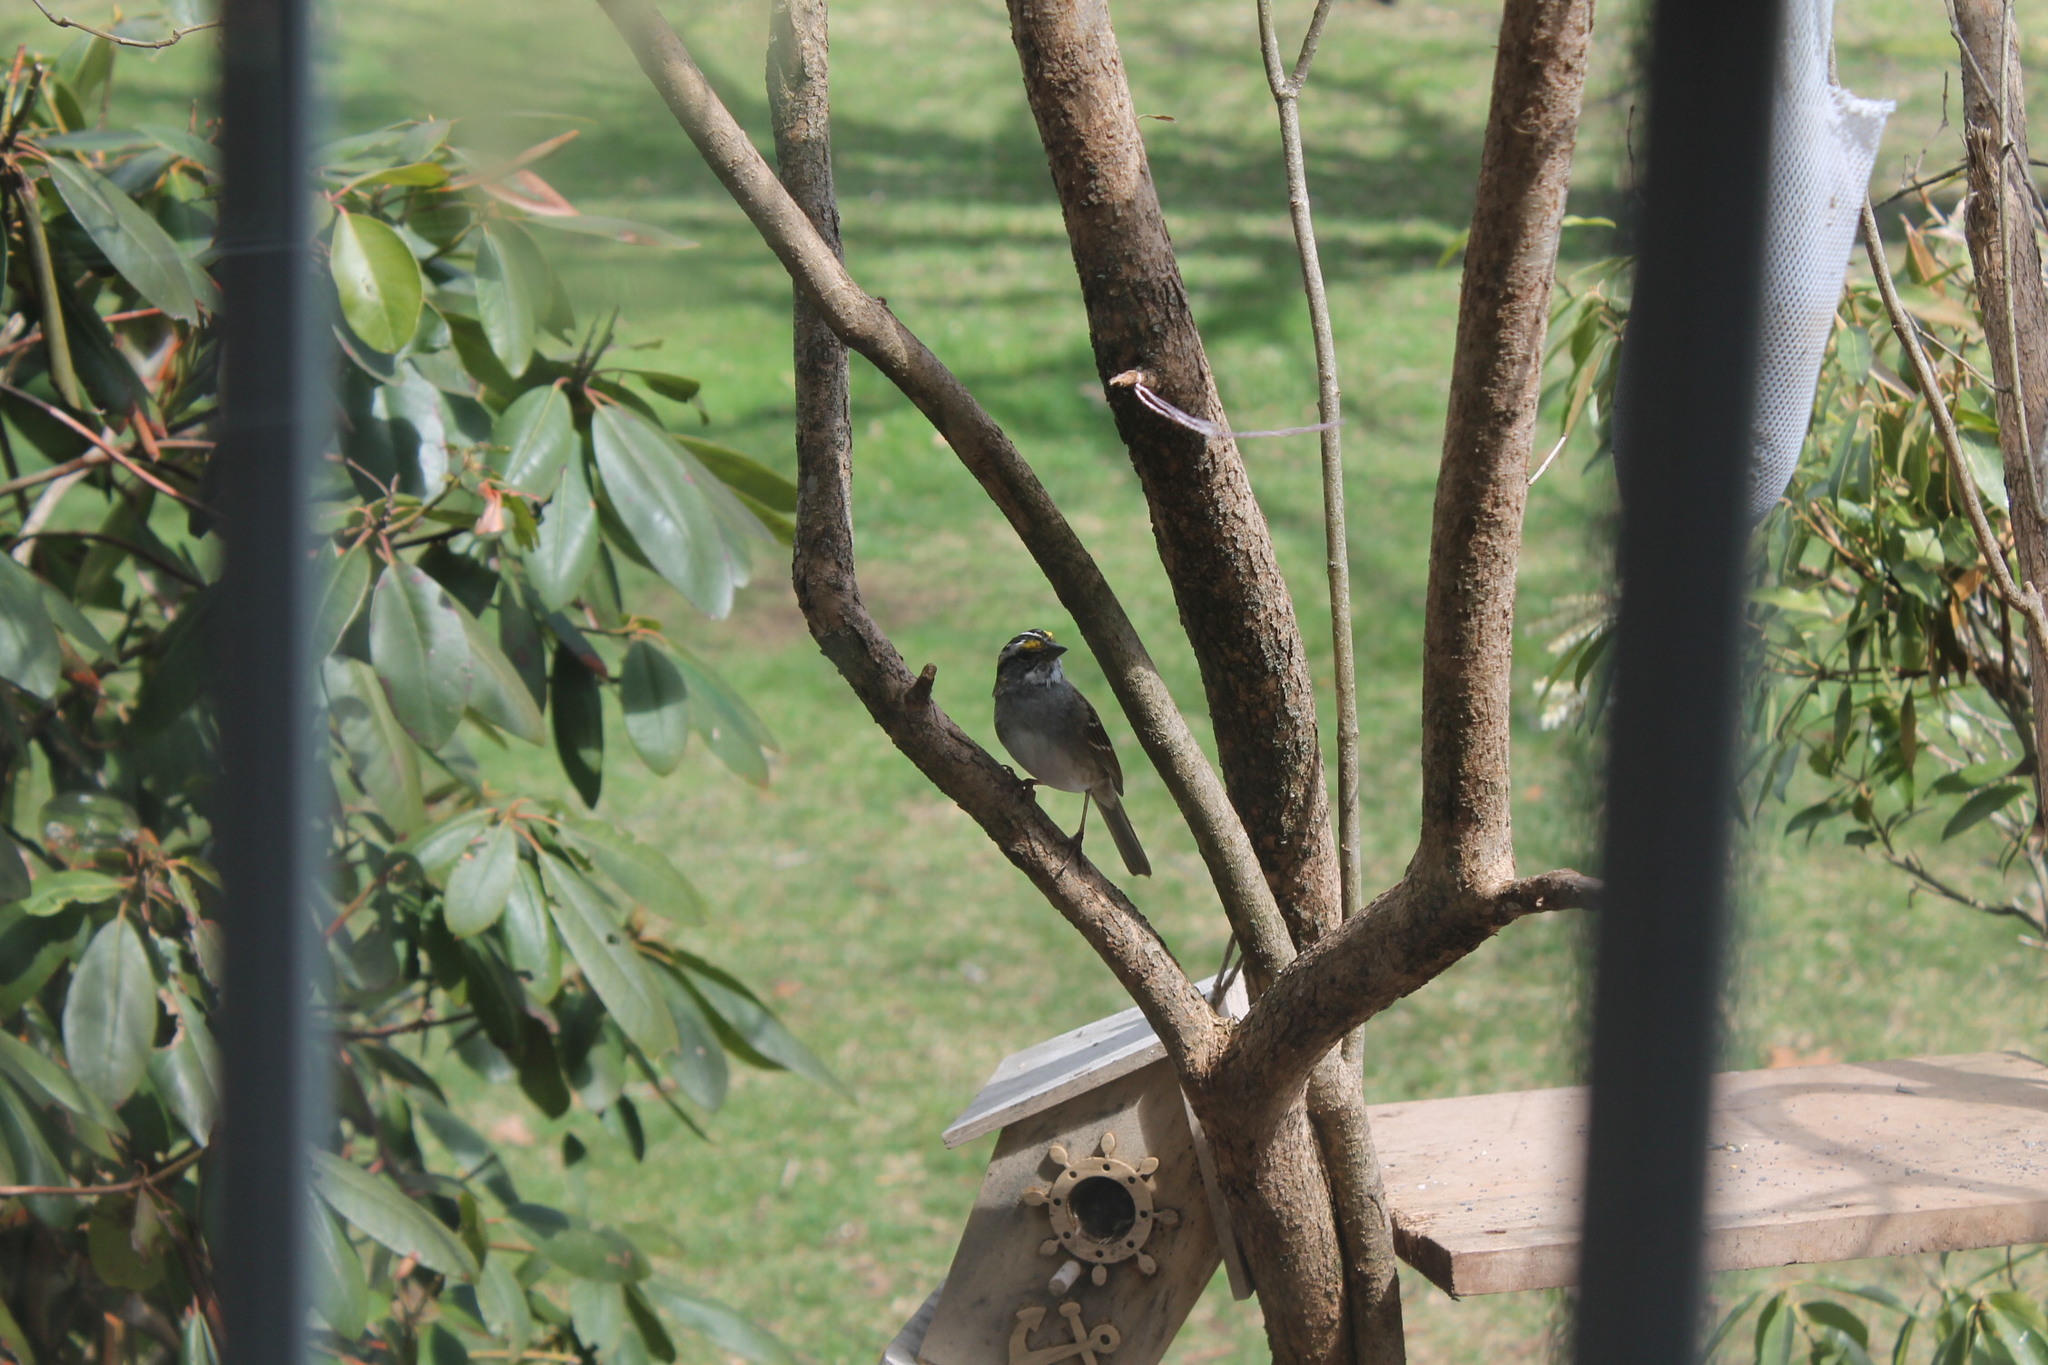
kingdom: Animalia
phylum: Chordata
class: Aves
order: Passeriformes
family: Passerellidae
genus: Zonotrichia
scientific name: Zonotrichia albicollis
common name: White-throated sparrow
